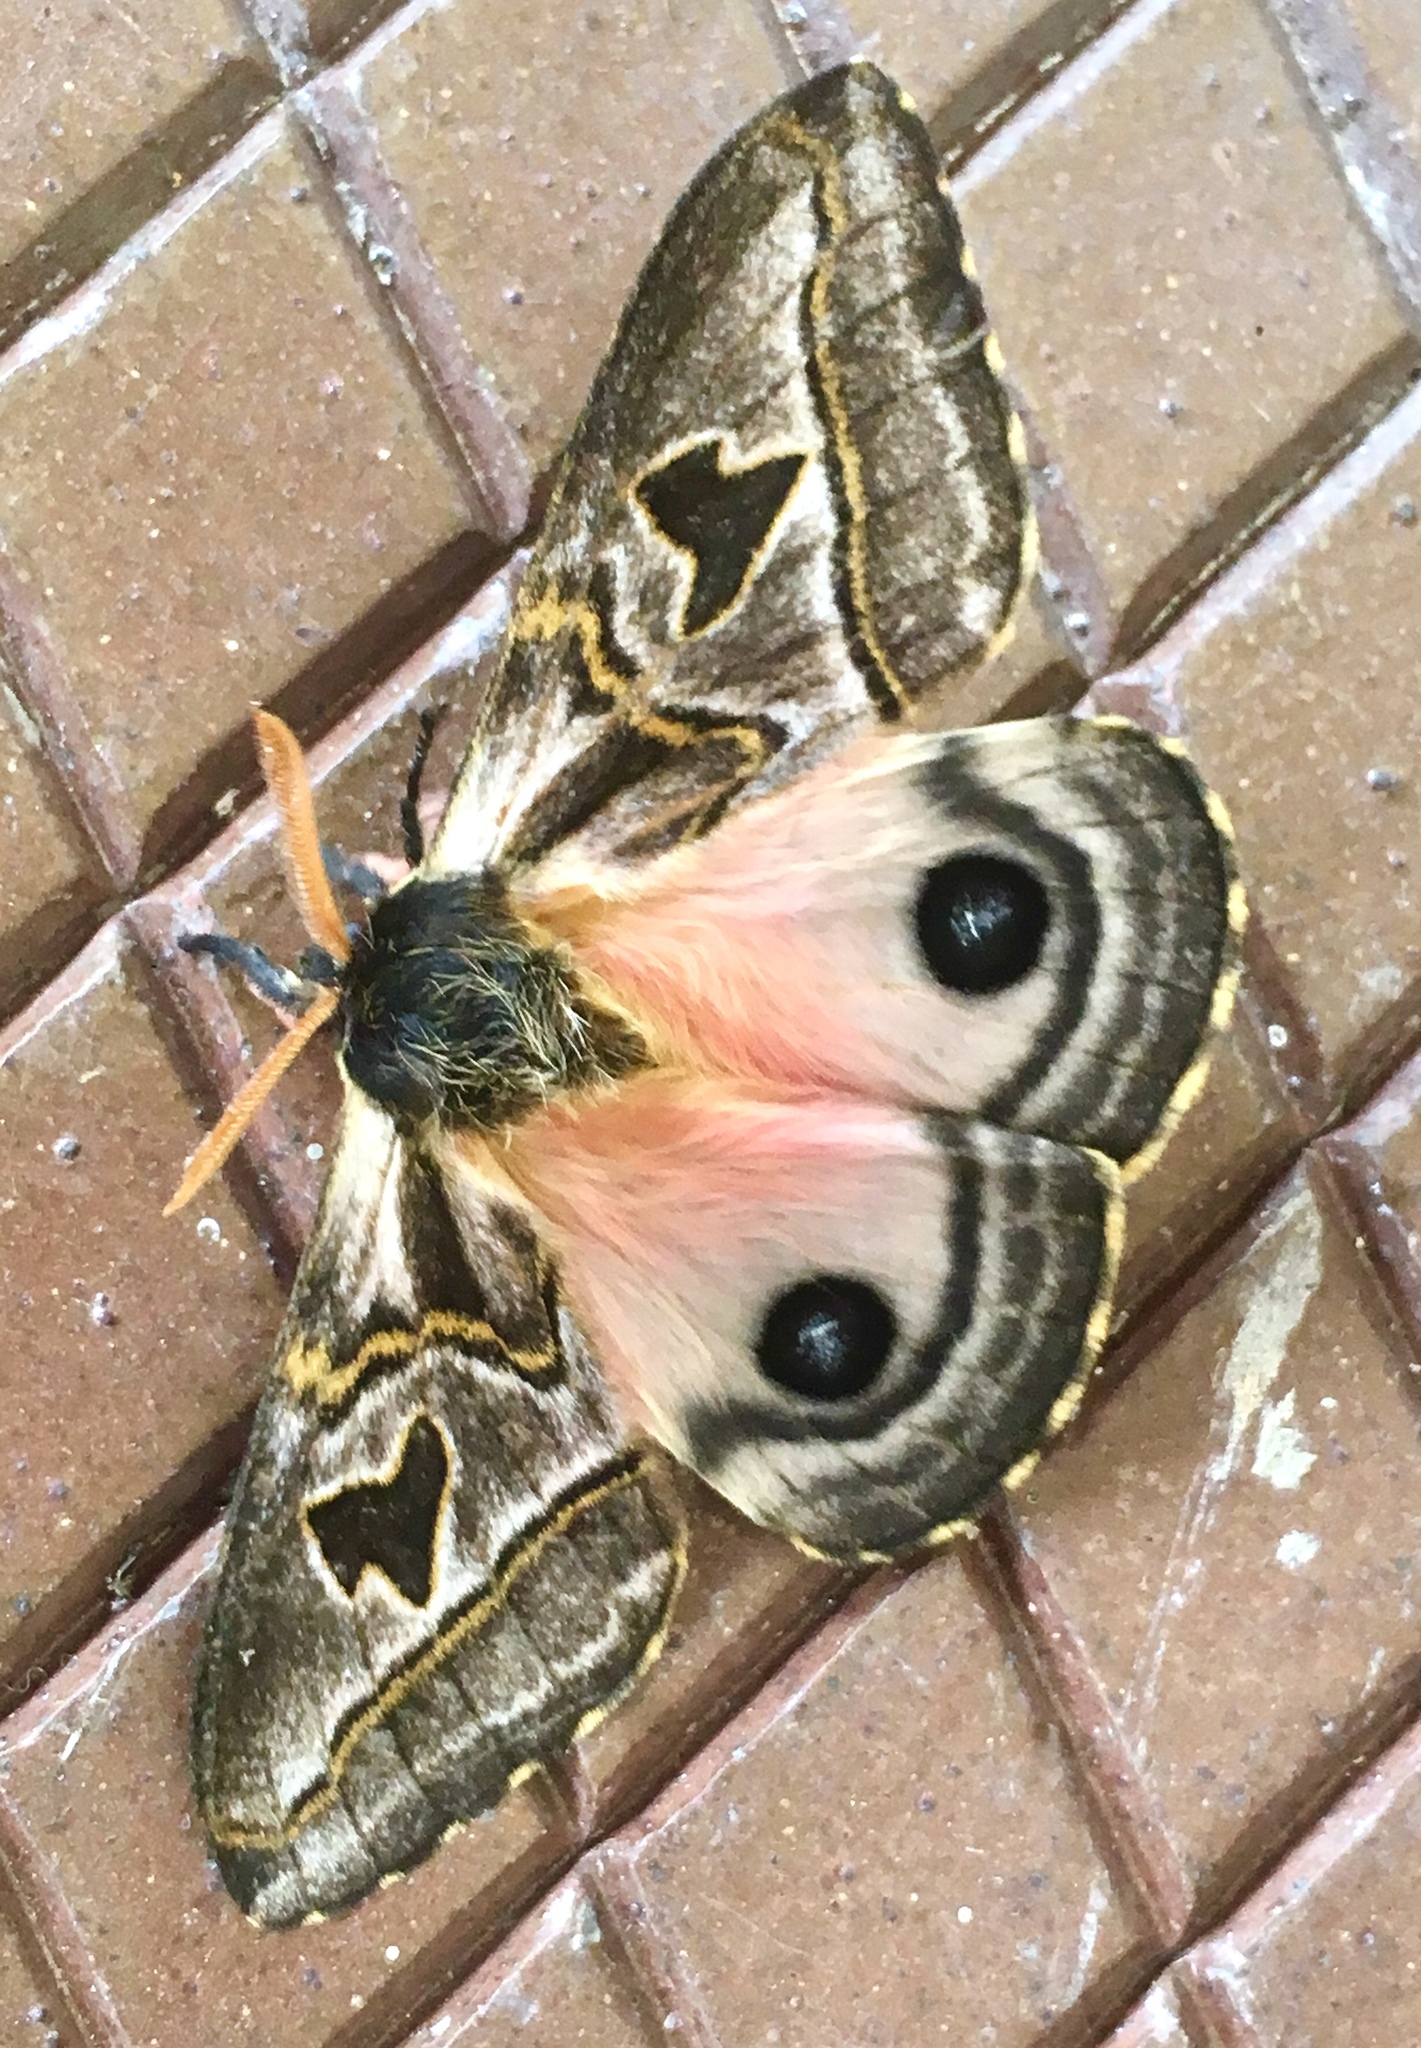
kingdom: Animalia
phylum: Arthropoda
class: Insecta
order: Lepidoptera
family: Saturniidae
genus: Erythromeris
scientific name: Erythromeris saturniata
